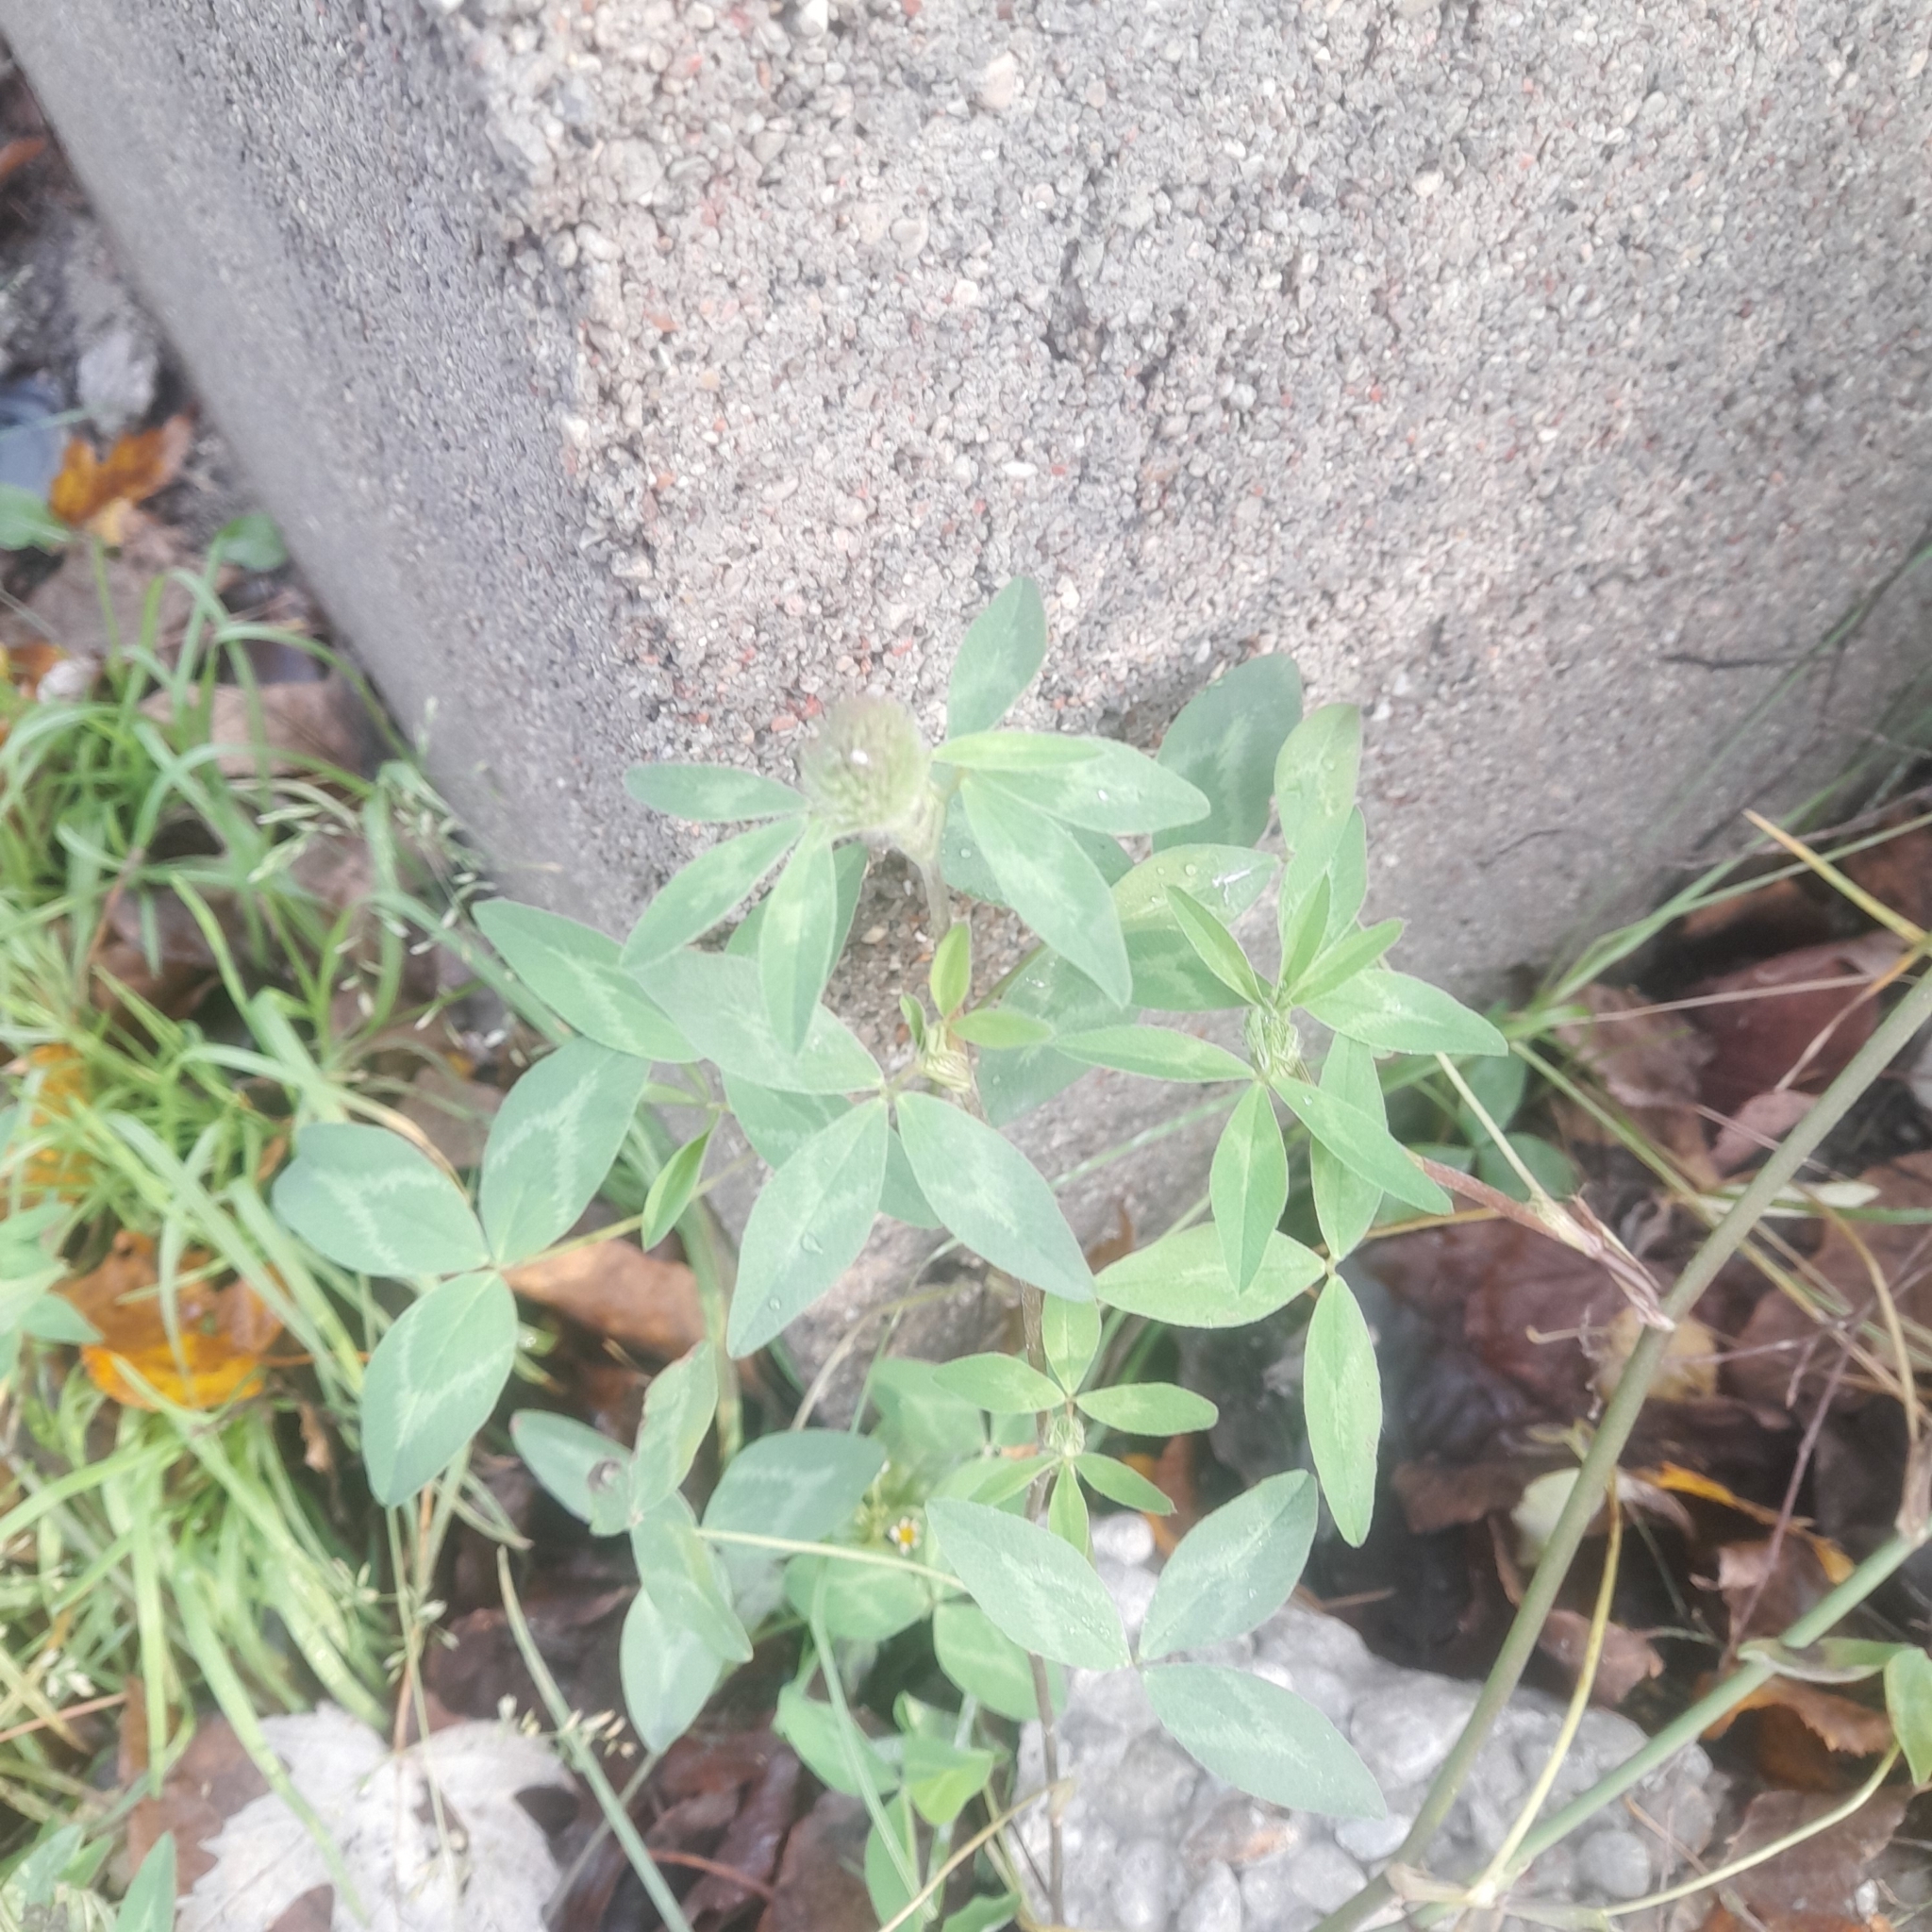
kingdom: Plantae
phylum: Tracheophyta
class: Magnoliopsida
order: Fabales
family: Fabaceae
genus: Trifolium
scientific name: Trifolium pratense
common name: Red clover
